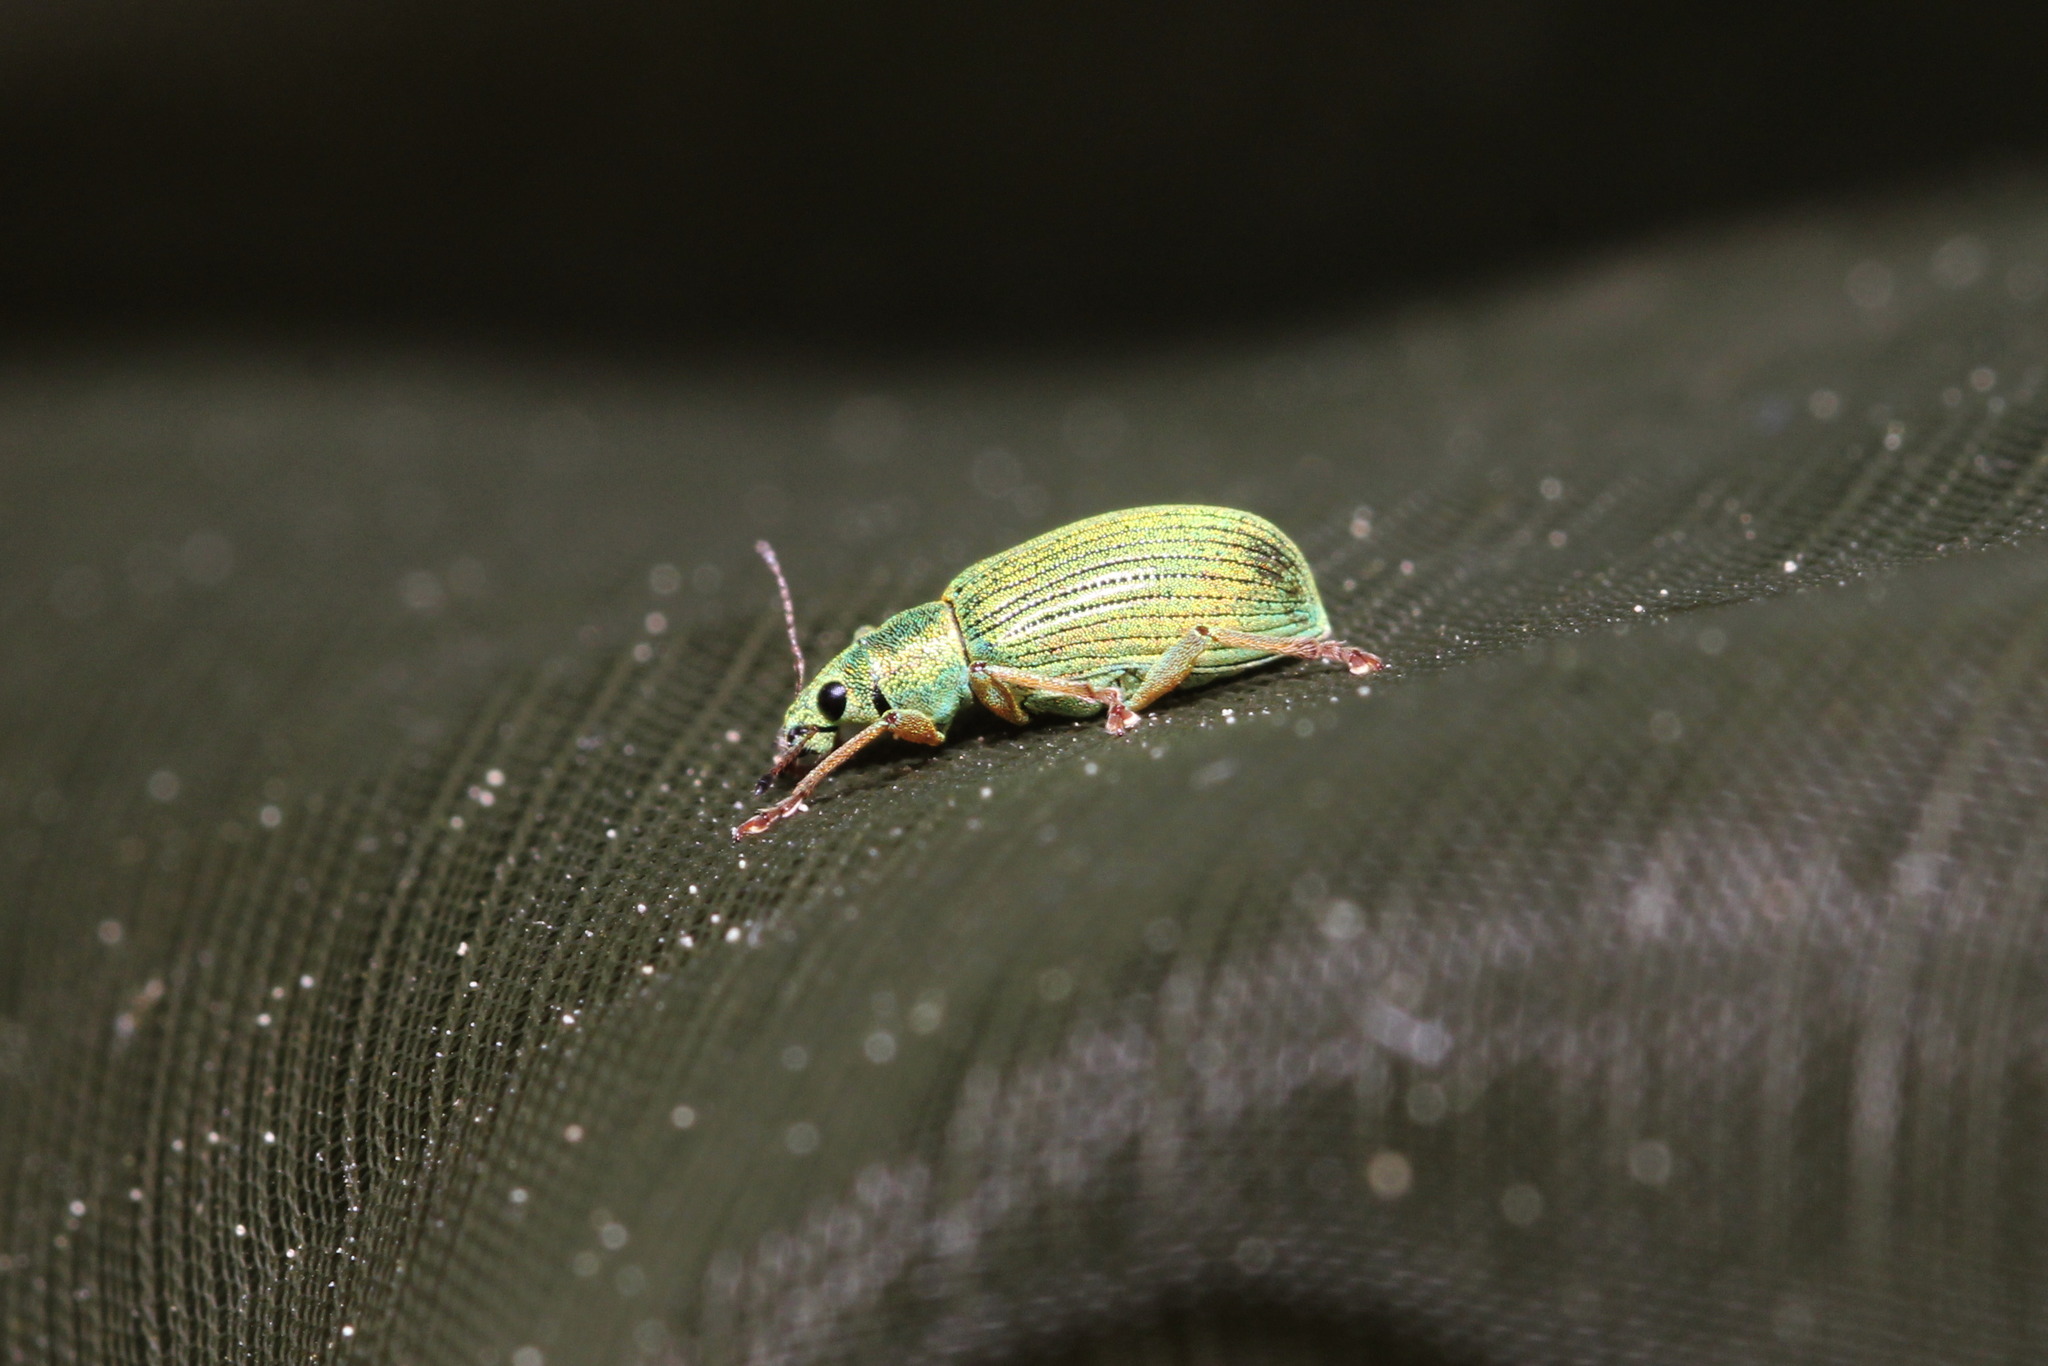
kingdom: Animalia
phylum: Arthropoda
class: Insecta
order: Coleoptera
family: Curculionidae
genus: Polydrusus
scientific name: Polydrusus formosus
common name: Weevil
